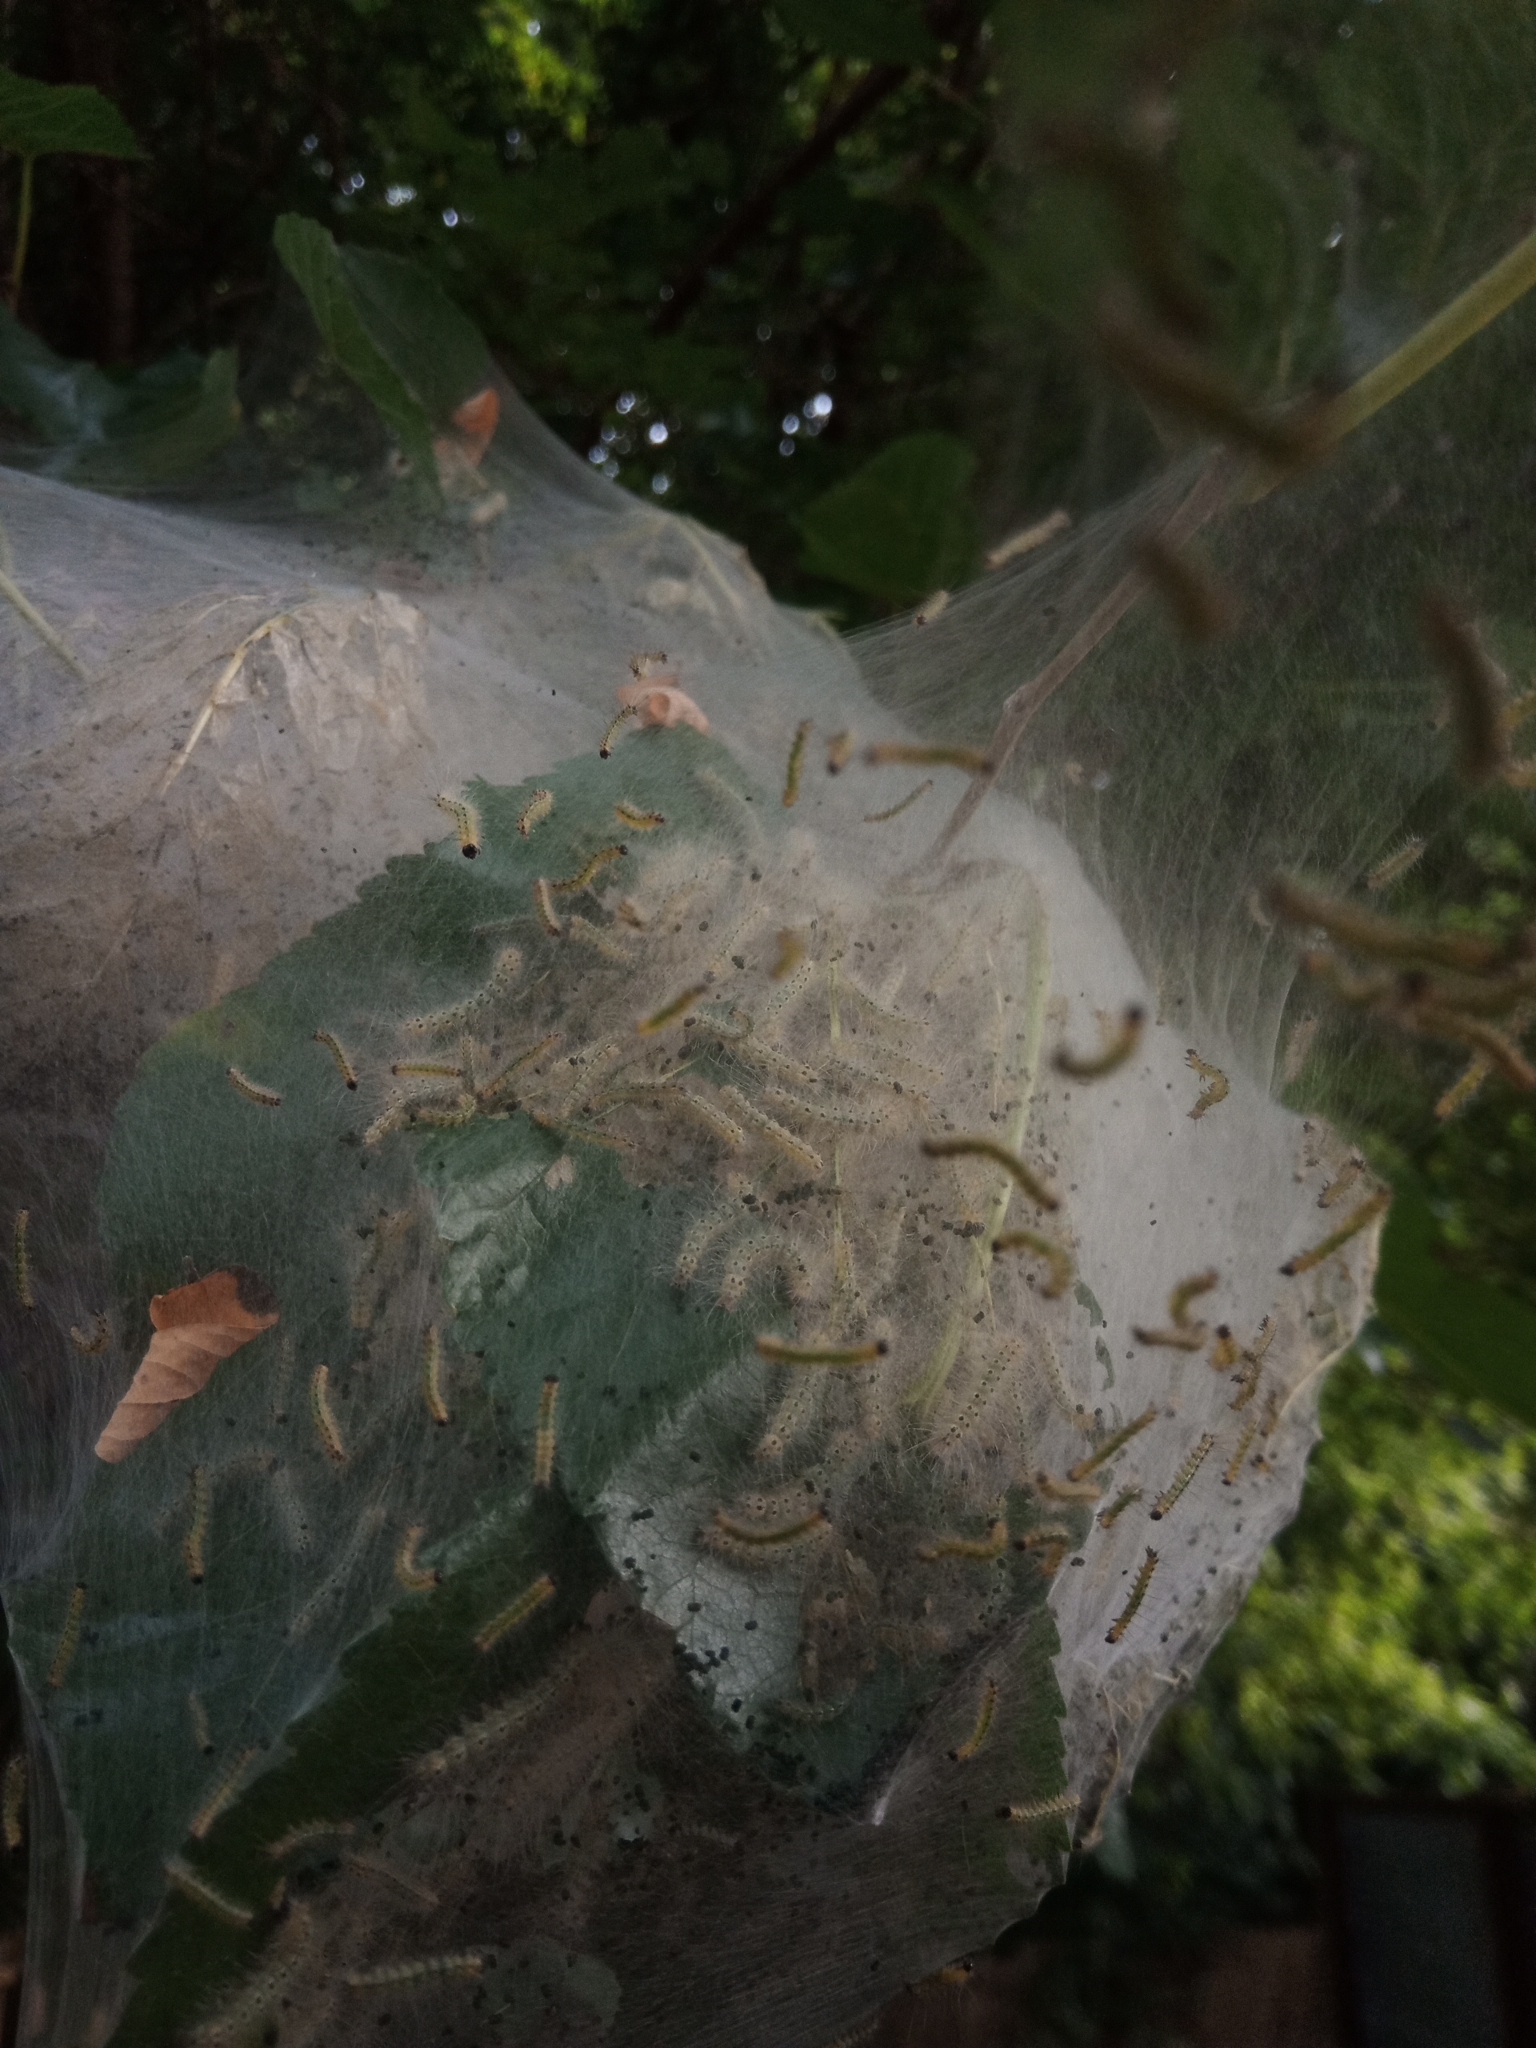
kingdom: Animalia
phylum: Arthropoda
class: Insecta
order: Lepidoptera
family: Erebidae
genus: Hyphantria
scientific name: Hyphantria cunea
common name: American white moth
